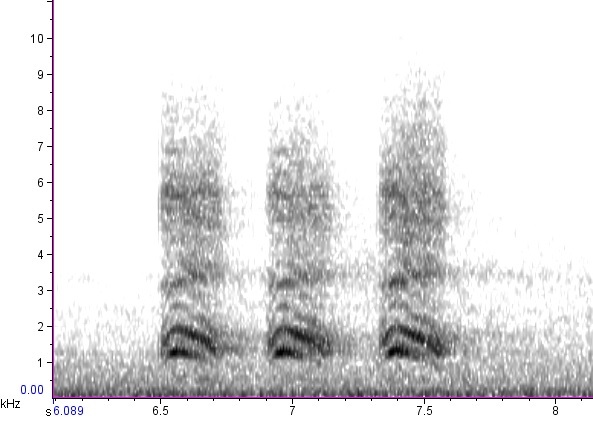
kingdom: Animalia
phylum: Chordata
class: Aves
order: Passeriformes
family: Corvidae
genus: Corvus
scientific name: Corvus brachyrhynchos
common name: American crow
